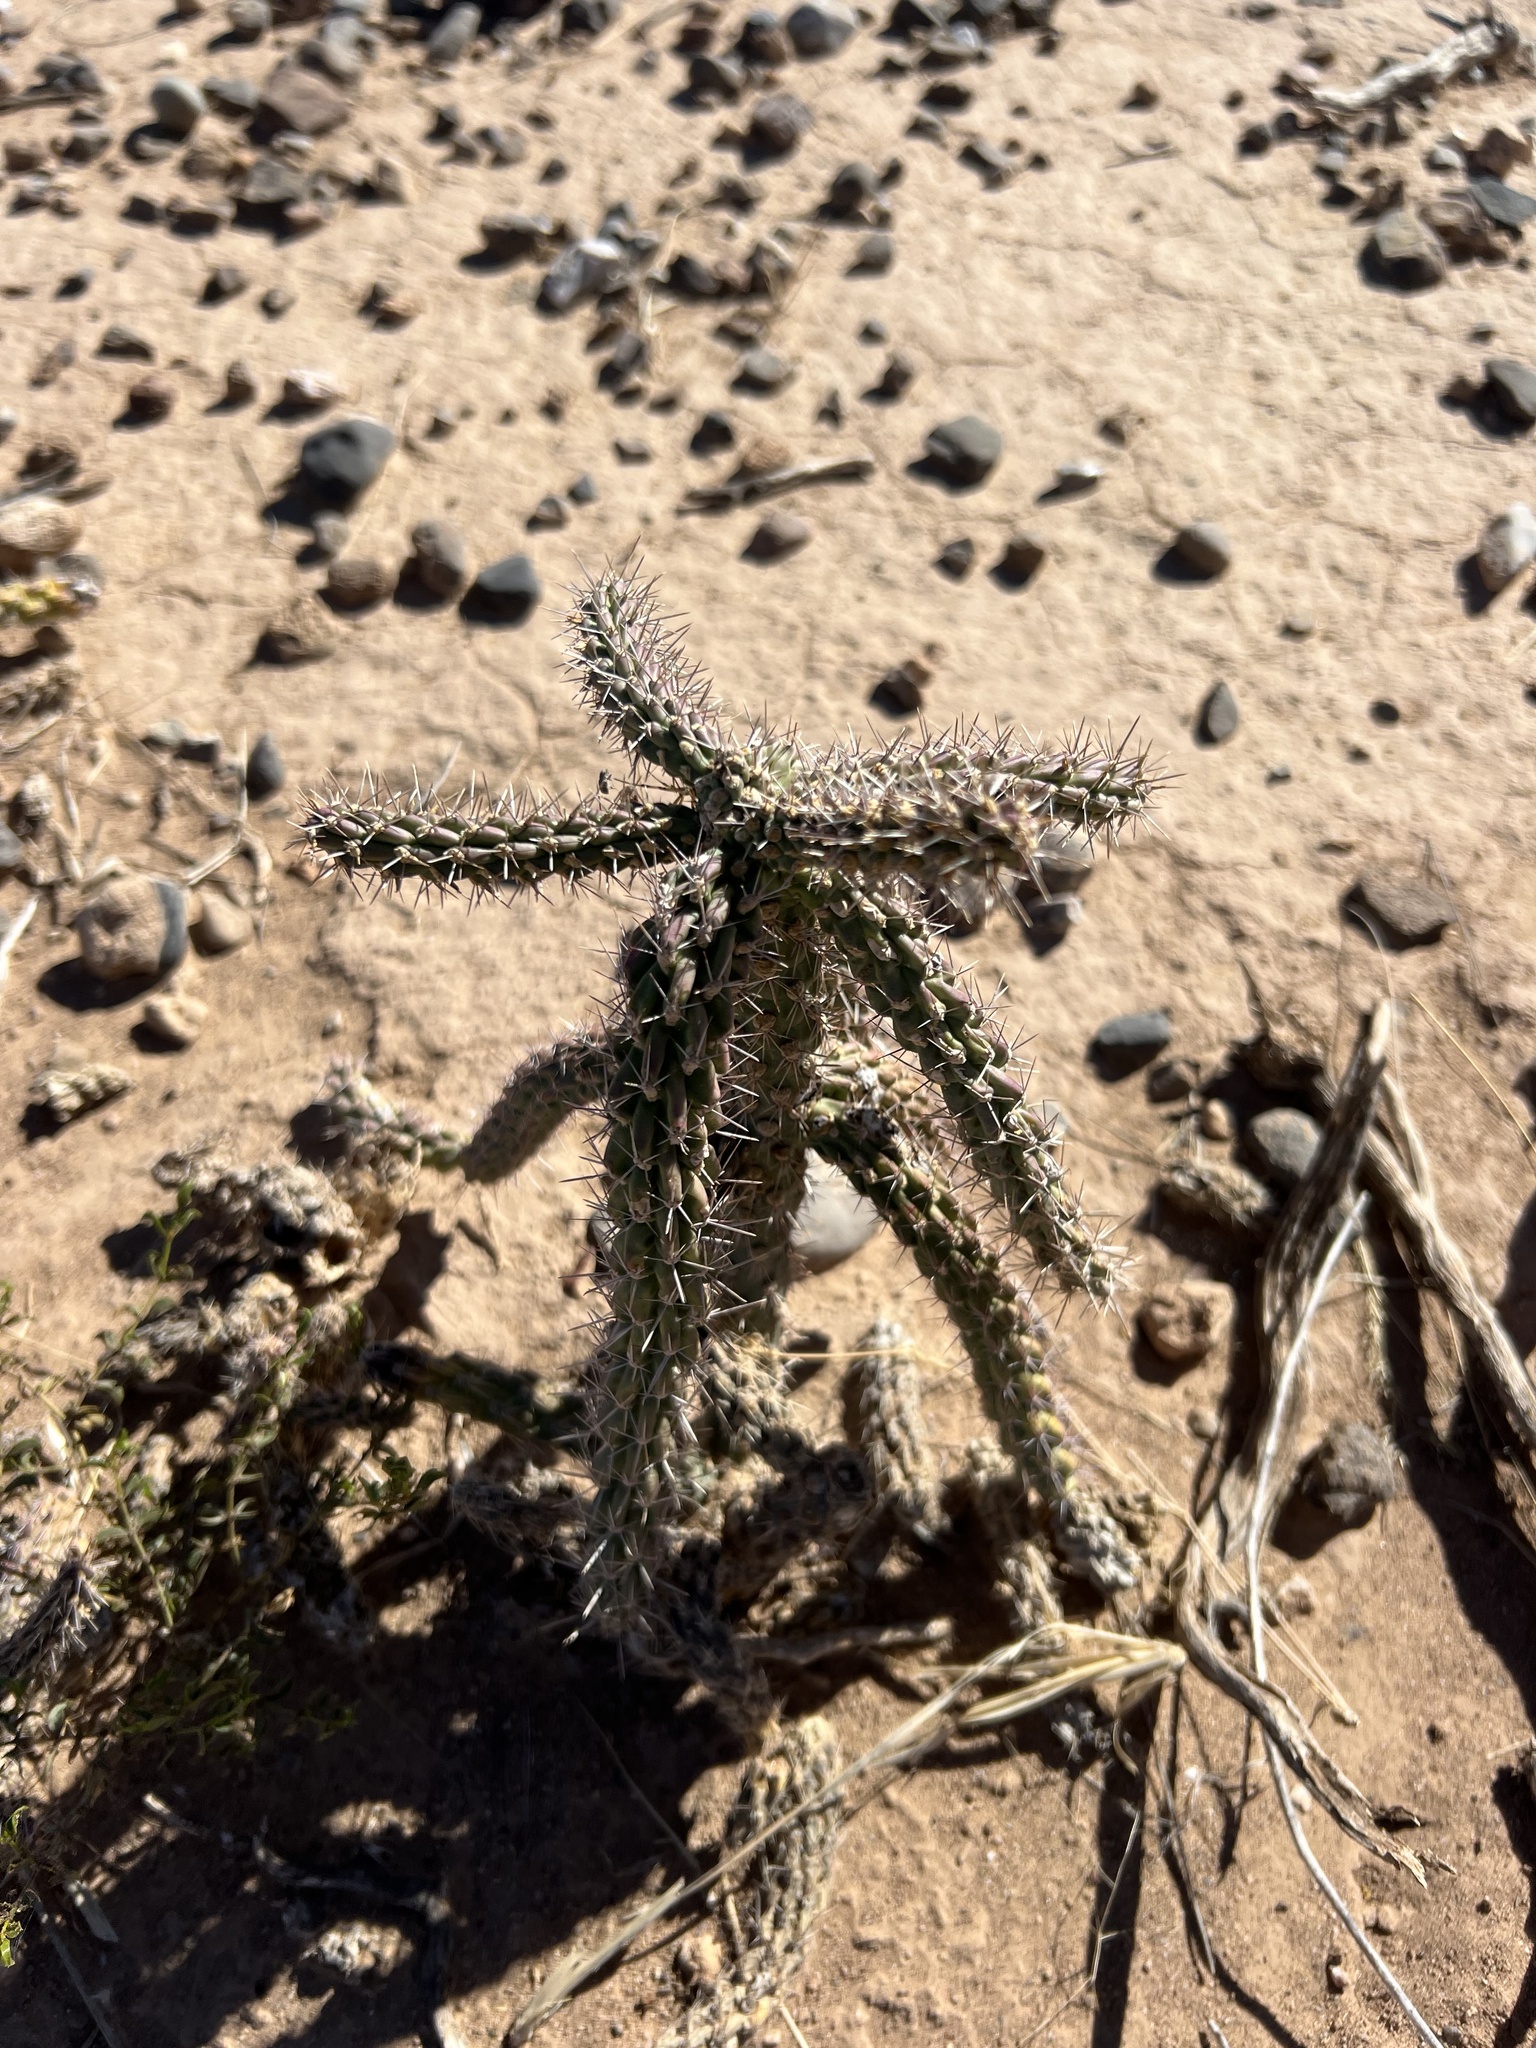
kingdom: Plantae
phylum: Tracheophyta
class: Magnoliopsida
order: Caryophyllales
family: Cactaceae
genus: Cylindropuntia
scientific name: Cylindropuntia imbricata
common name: Candelabrum cactus
